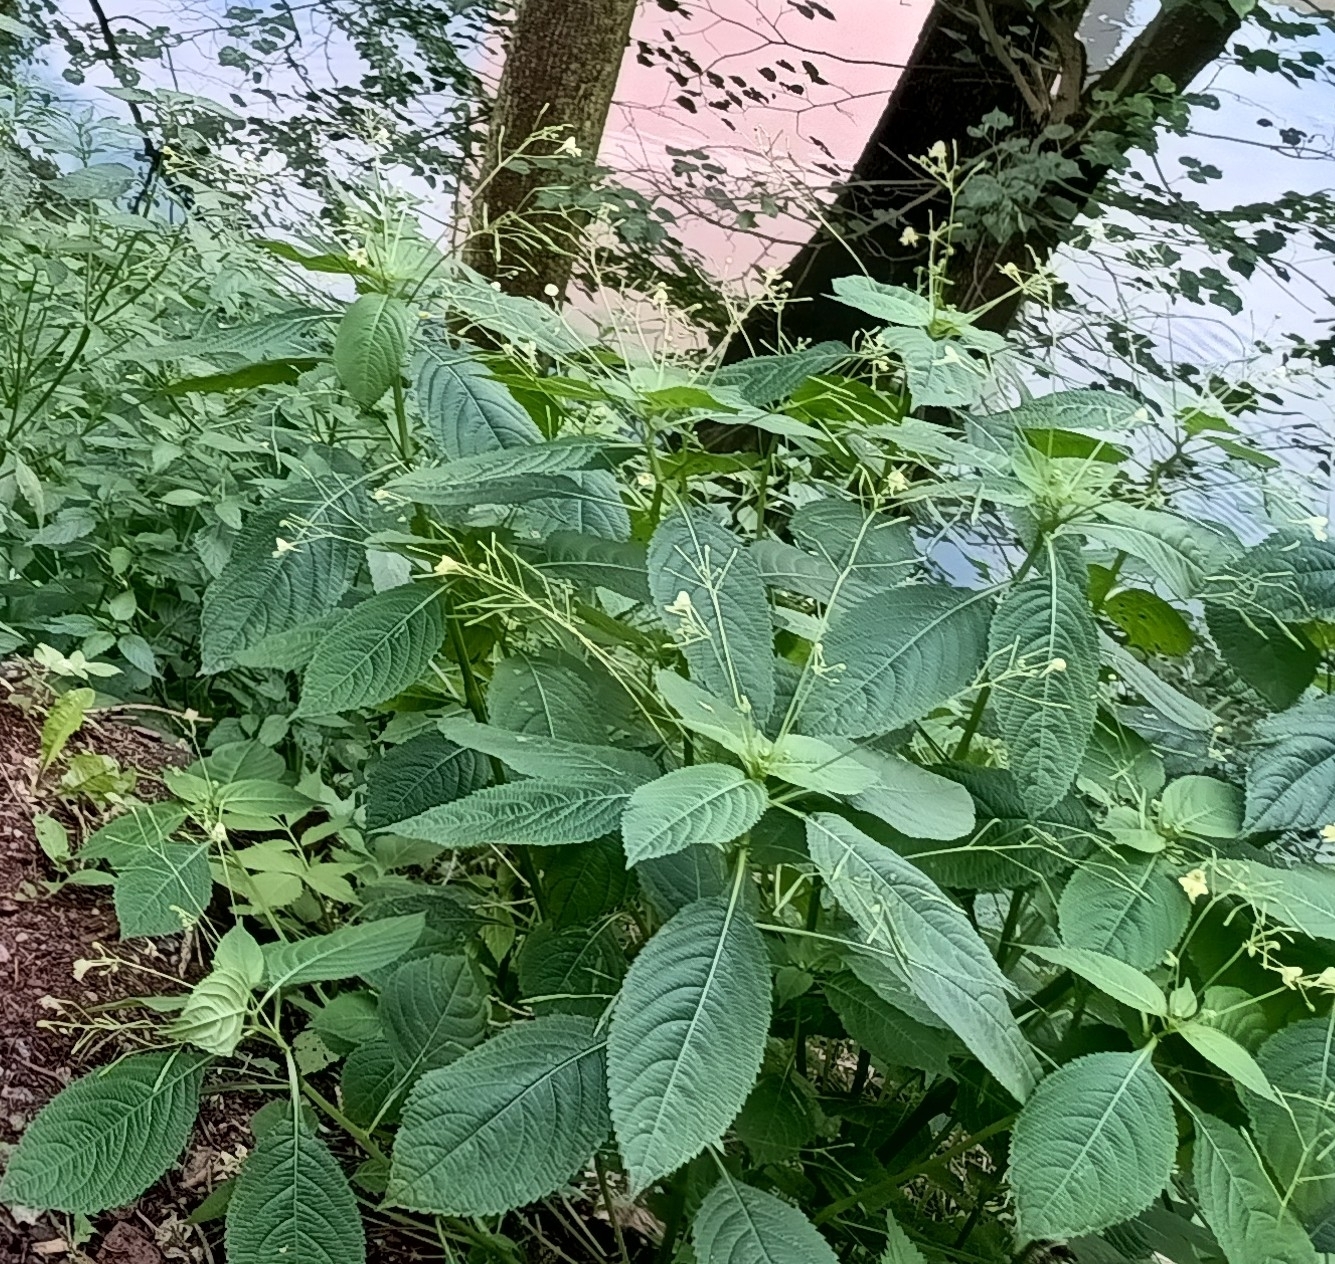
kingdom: Plantae
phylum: Tracheophyta
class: Magnoliopsida
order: Ericales
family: Balsaminaceae
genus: Impatiens
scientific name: Impatiens parviflora
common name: Small balsam
